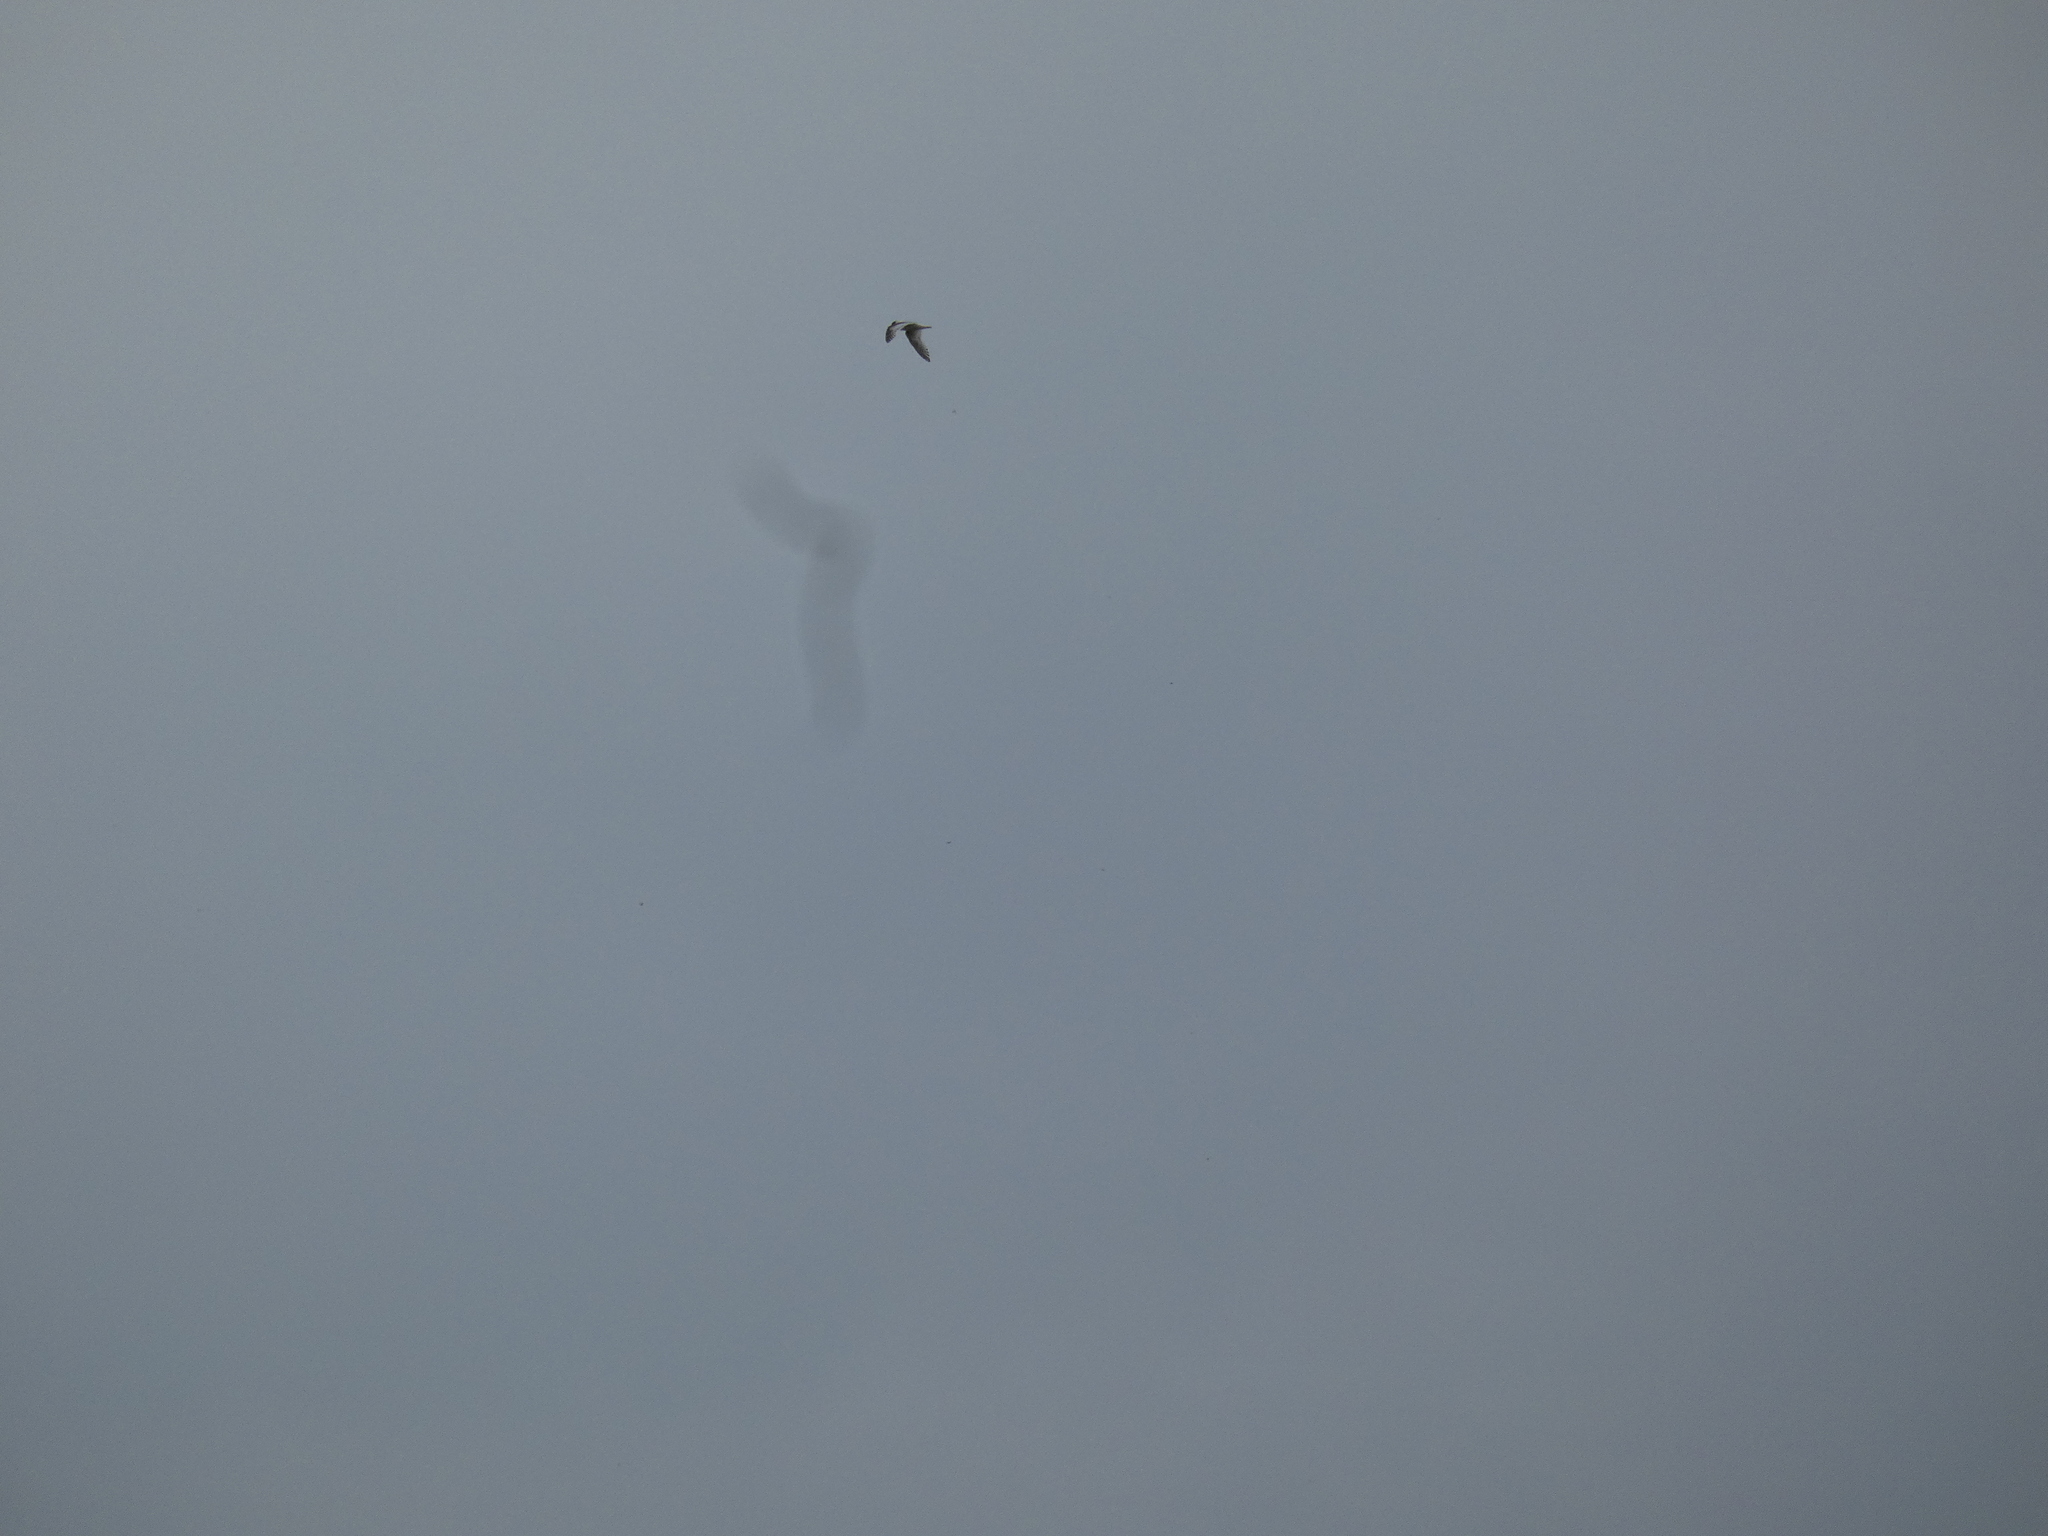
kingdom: Animalia
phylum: Chordata
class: Aves
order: Charadriiformes
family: Laridae
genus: Ichthyaetus
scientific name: Ichthyaetus melanocephalus
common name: Mediterranean gull
